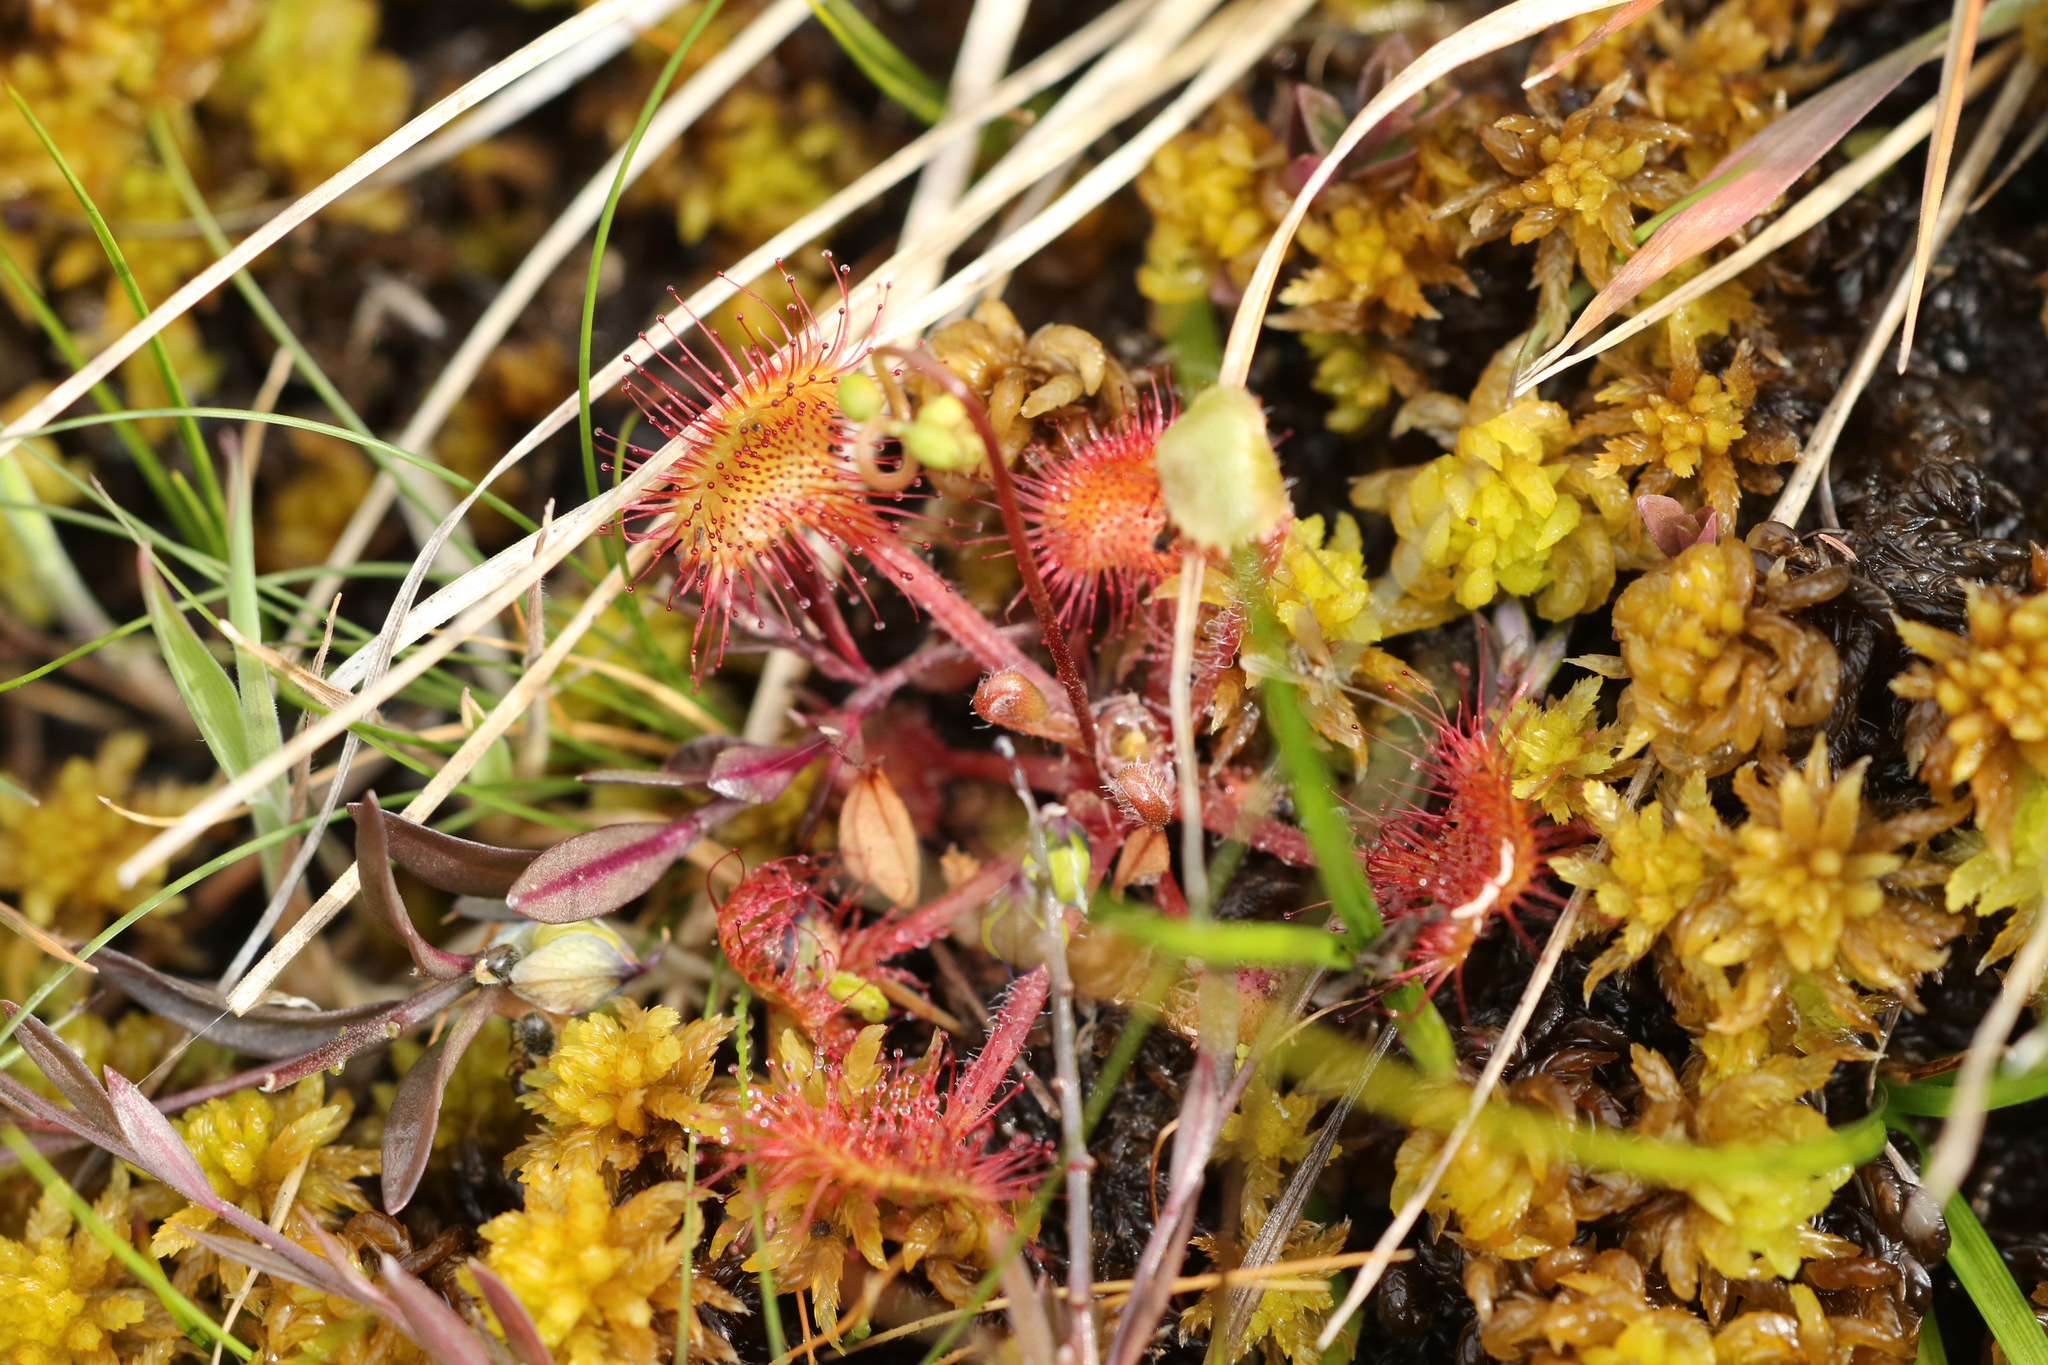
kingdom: Plantae
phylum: Tracheophyta
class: Magnoliopsida
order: Caryophyllales
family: Droseraceae
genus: Drosera
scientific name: Drosera rotundifolia
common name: Round-leaved sundew
